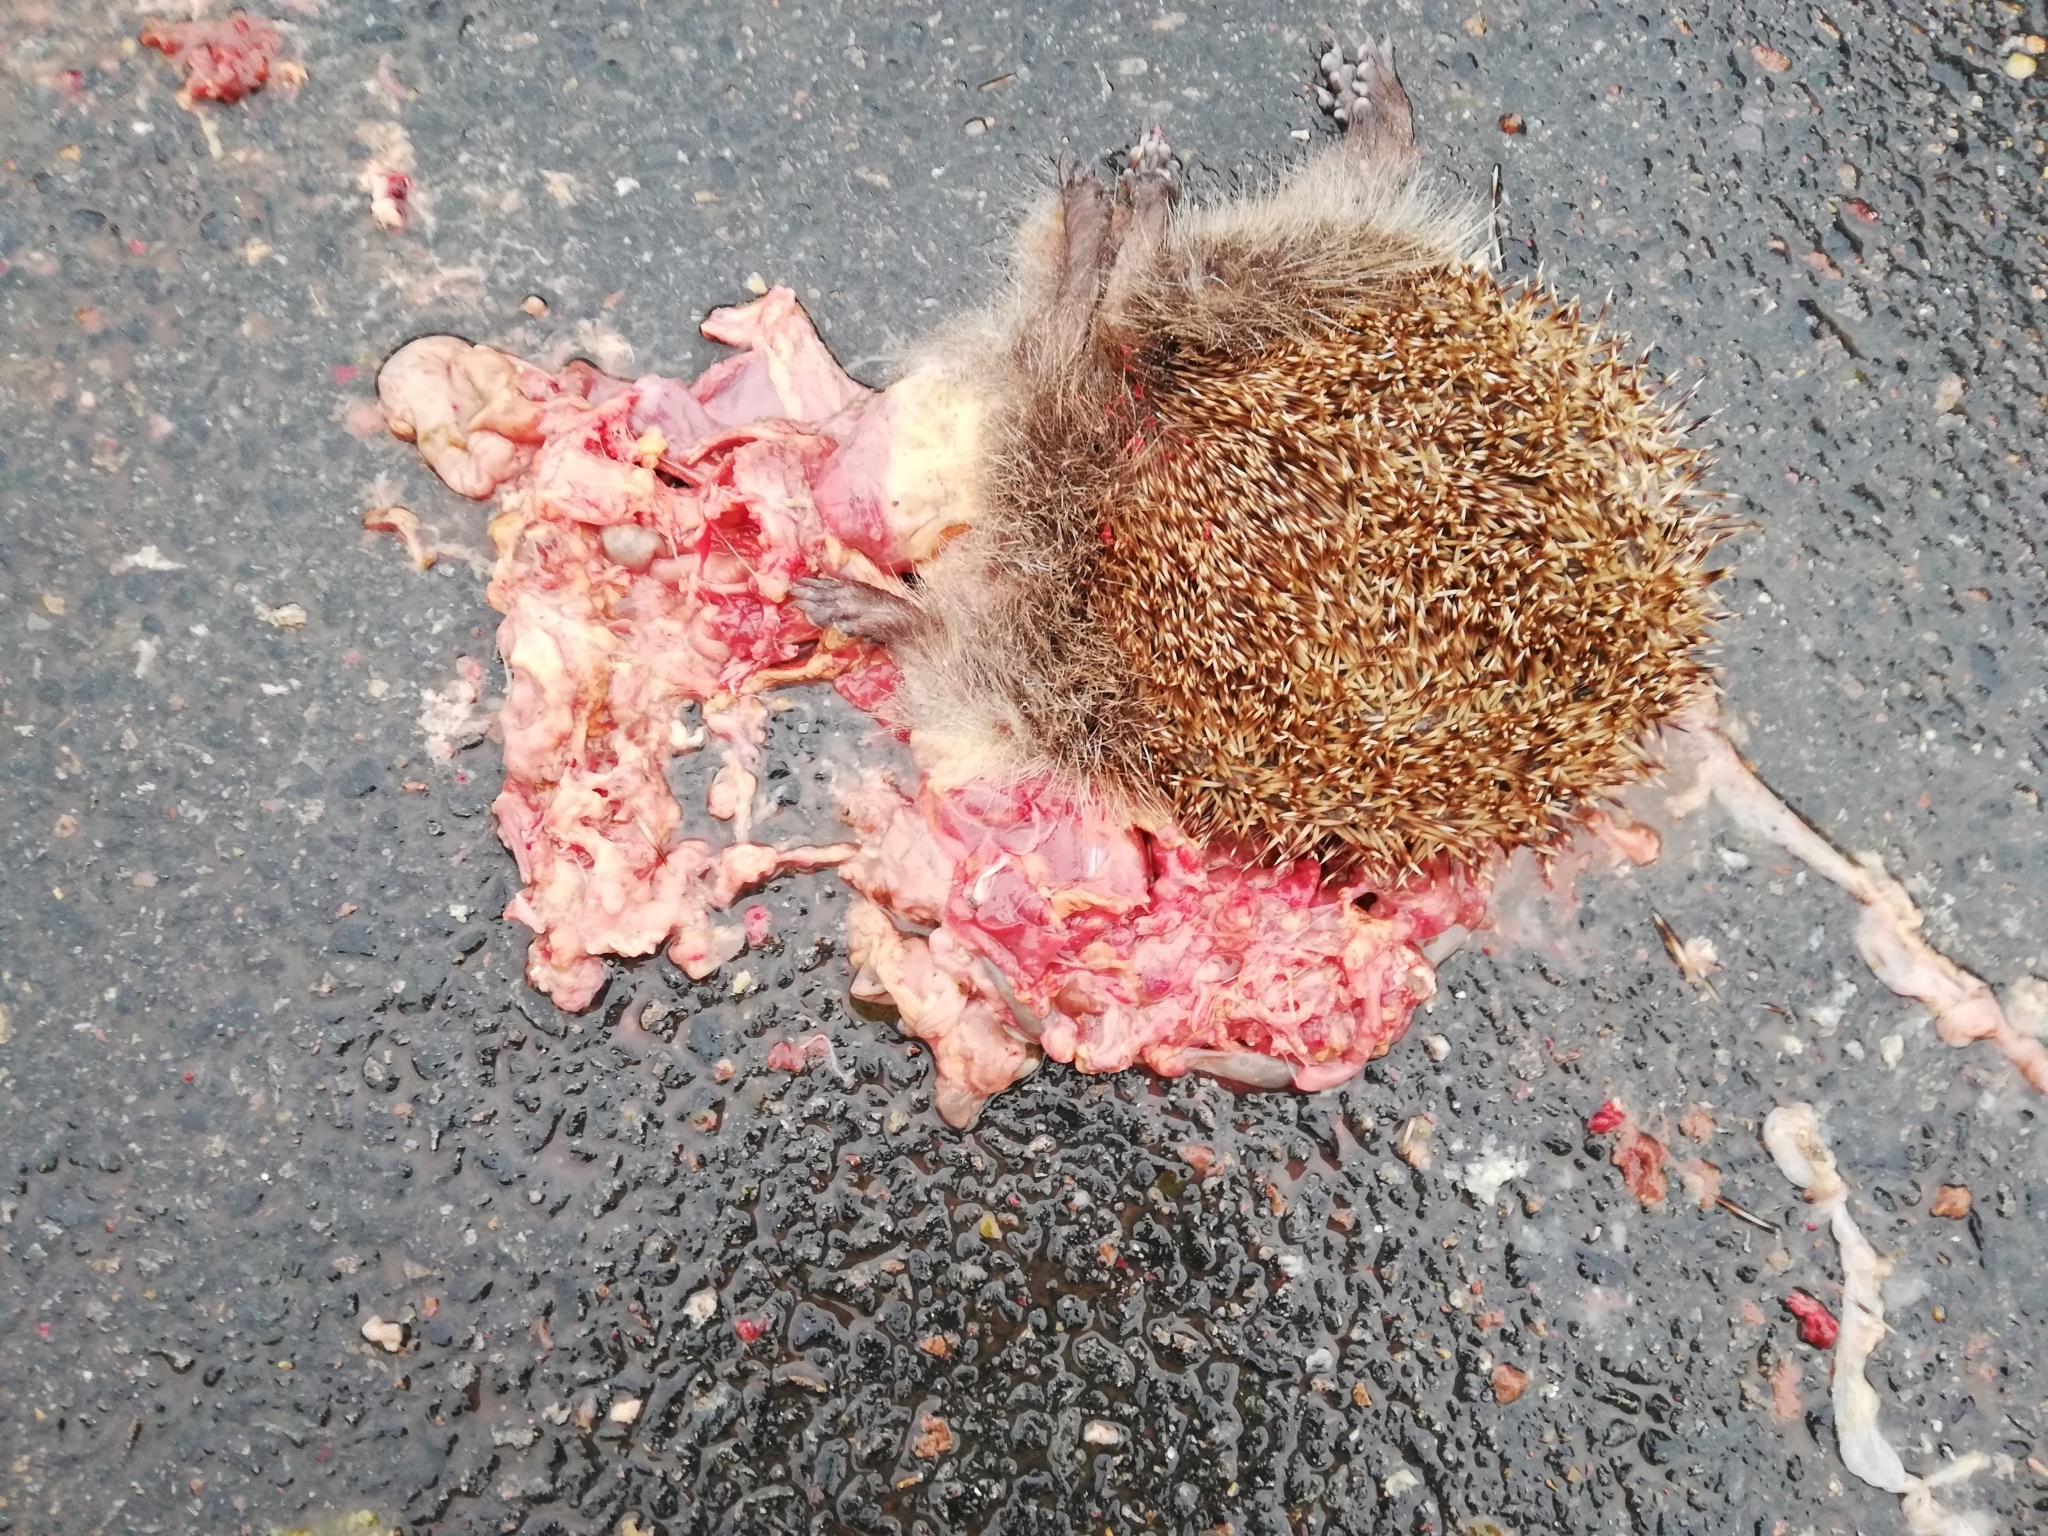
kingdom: Animalia
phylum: Chordata
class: Mammalia
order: Erinaceomorpha
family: Erinaceidae
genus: Erinaceus
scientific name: Erinaceus europaeus
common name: West european hedgehog
